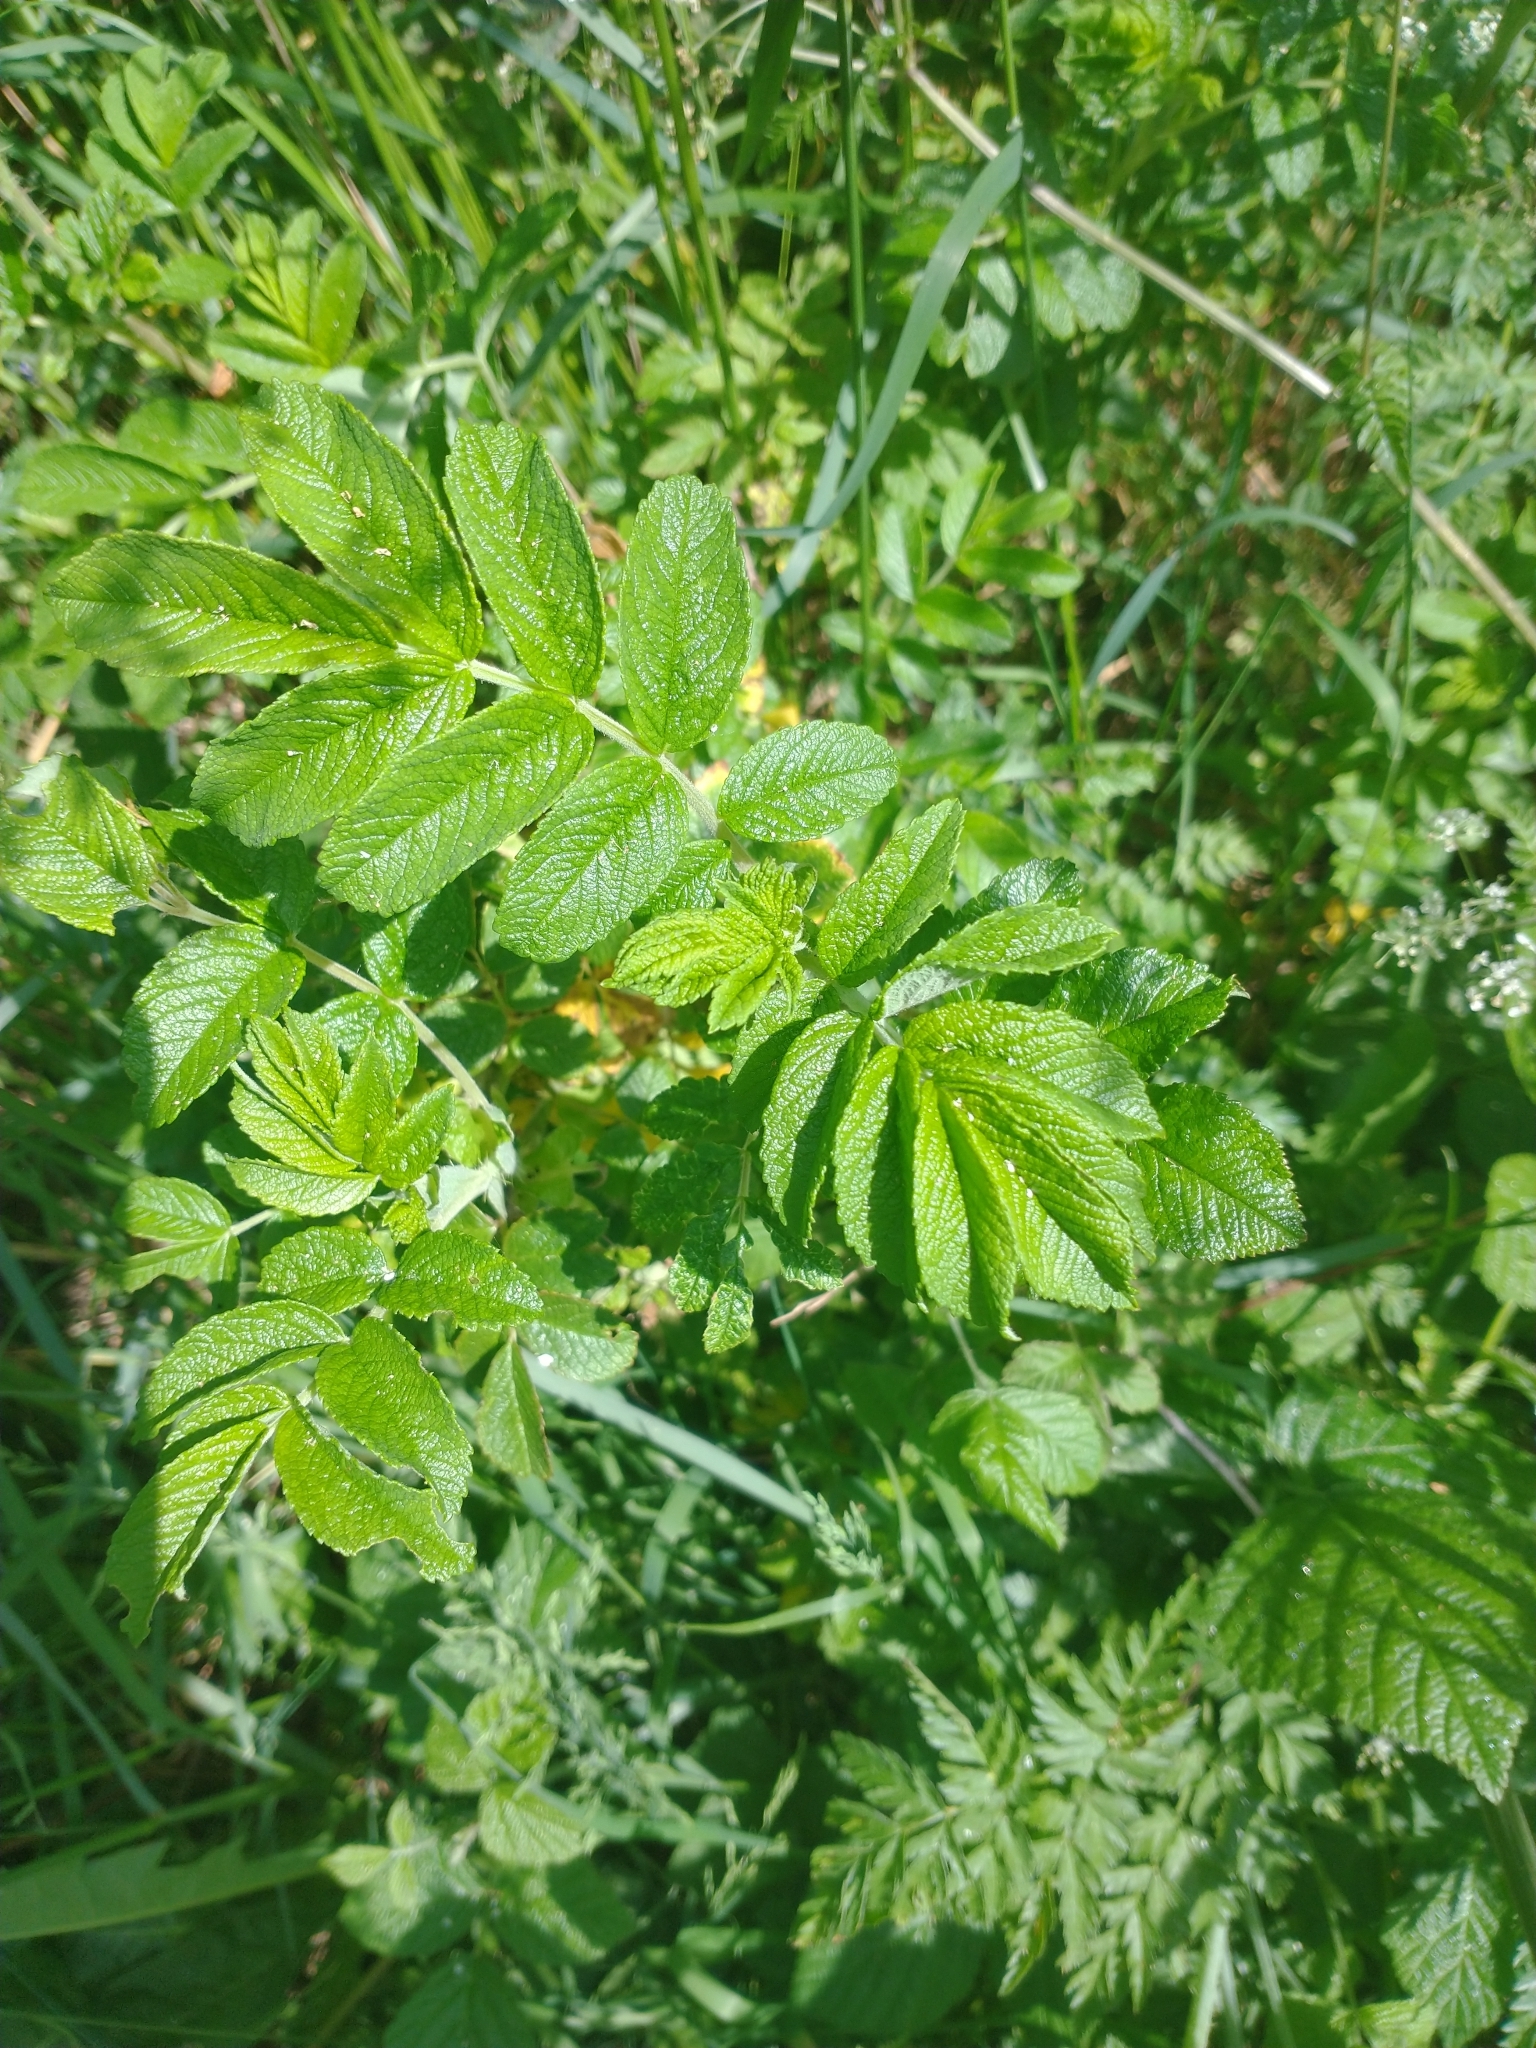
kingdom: Plantae
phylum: Tracheophyta
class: Magnoliopsida
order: Rosales
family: Rosaceae
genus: Rosa
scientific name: Rosa rugosa
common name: Japanese rose
